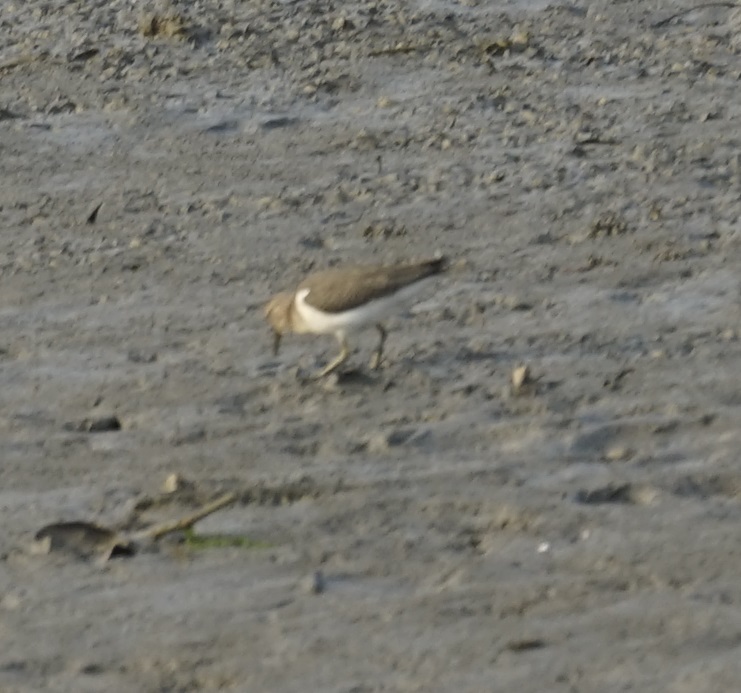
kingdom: Animalia
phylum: Chordata
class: Aves
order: Charadriiformes
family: Scolopacidae
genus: Actitis
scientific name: Actitis hypoleucos
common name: Common sandpiper
